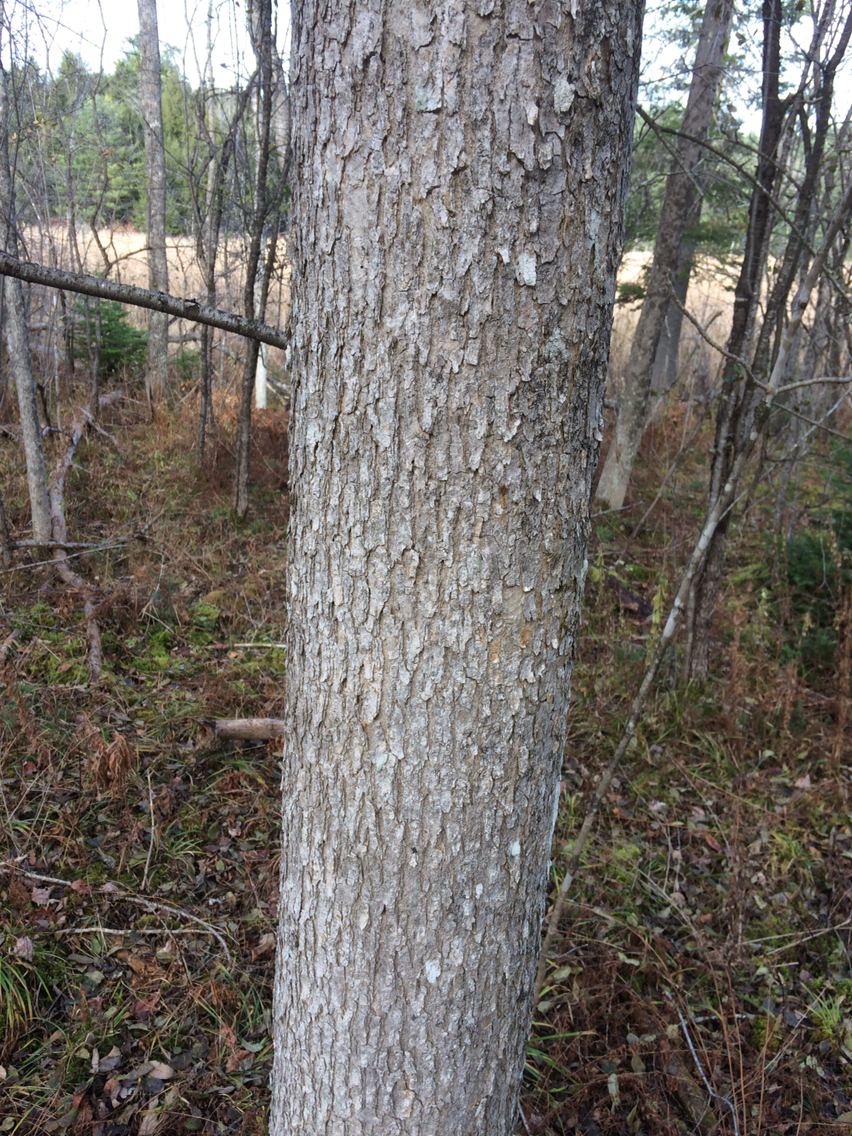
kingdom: Plantae
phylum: Tracheophyta
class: Magnoliopsida
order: Lamiales
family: Oleaceae
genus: Fraxinus
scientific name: Fraxinus nigra
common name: Black ash
